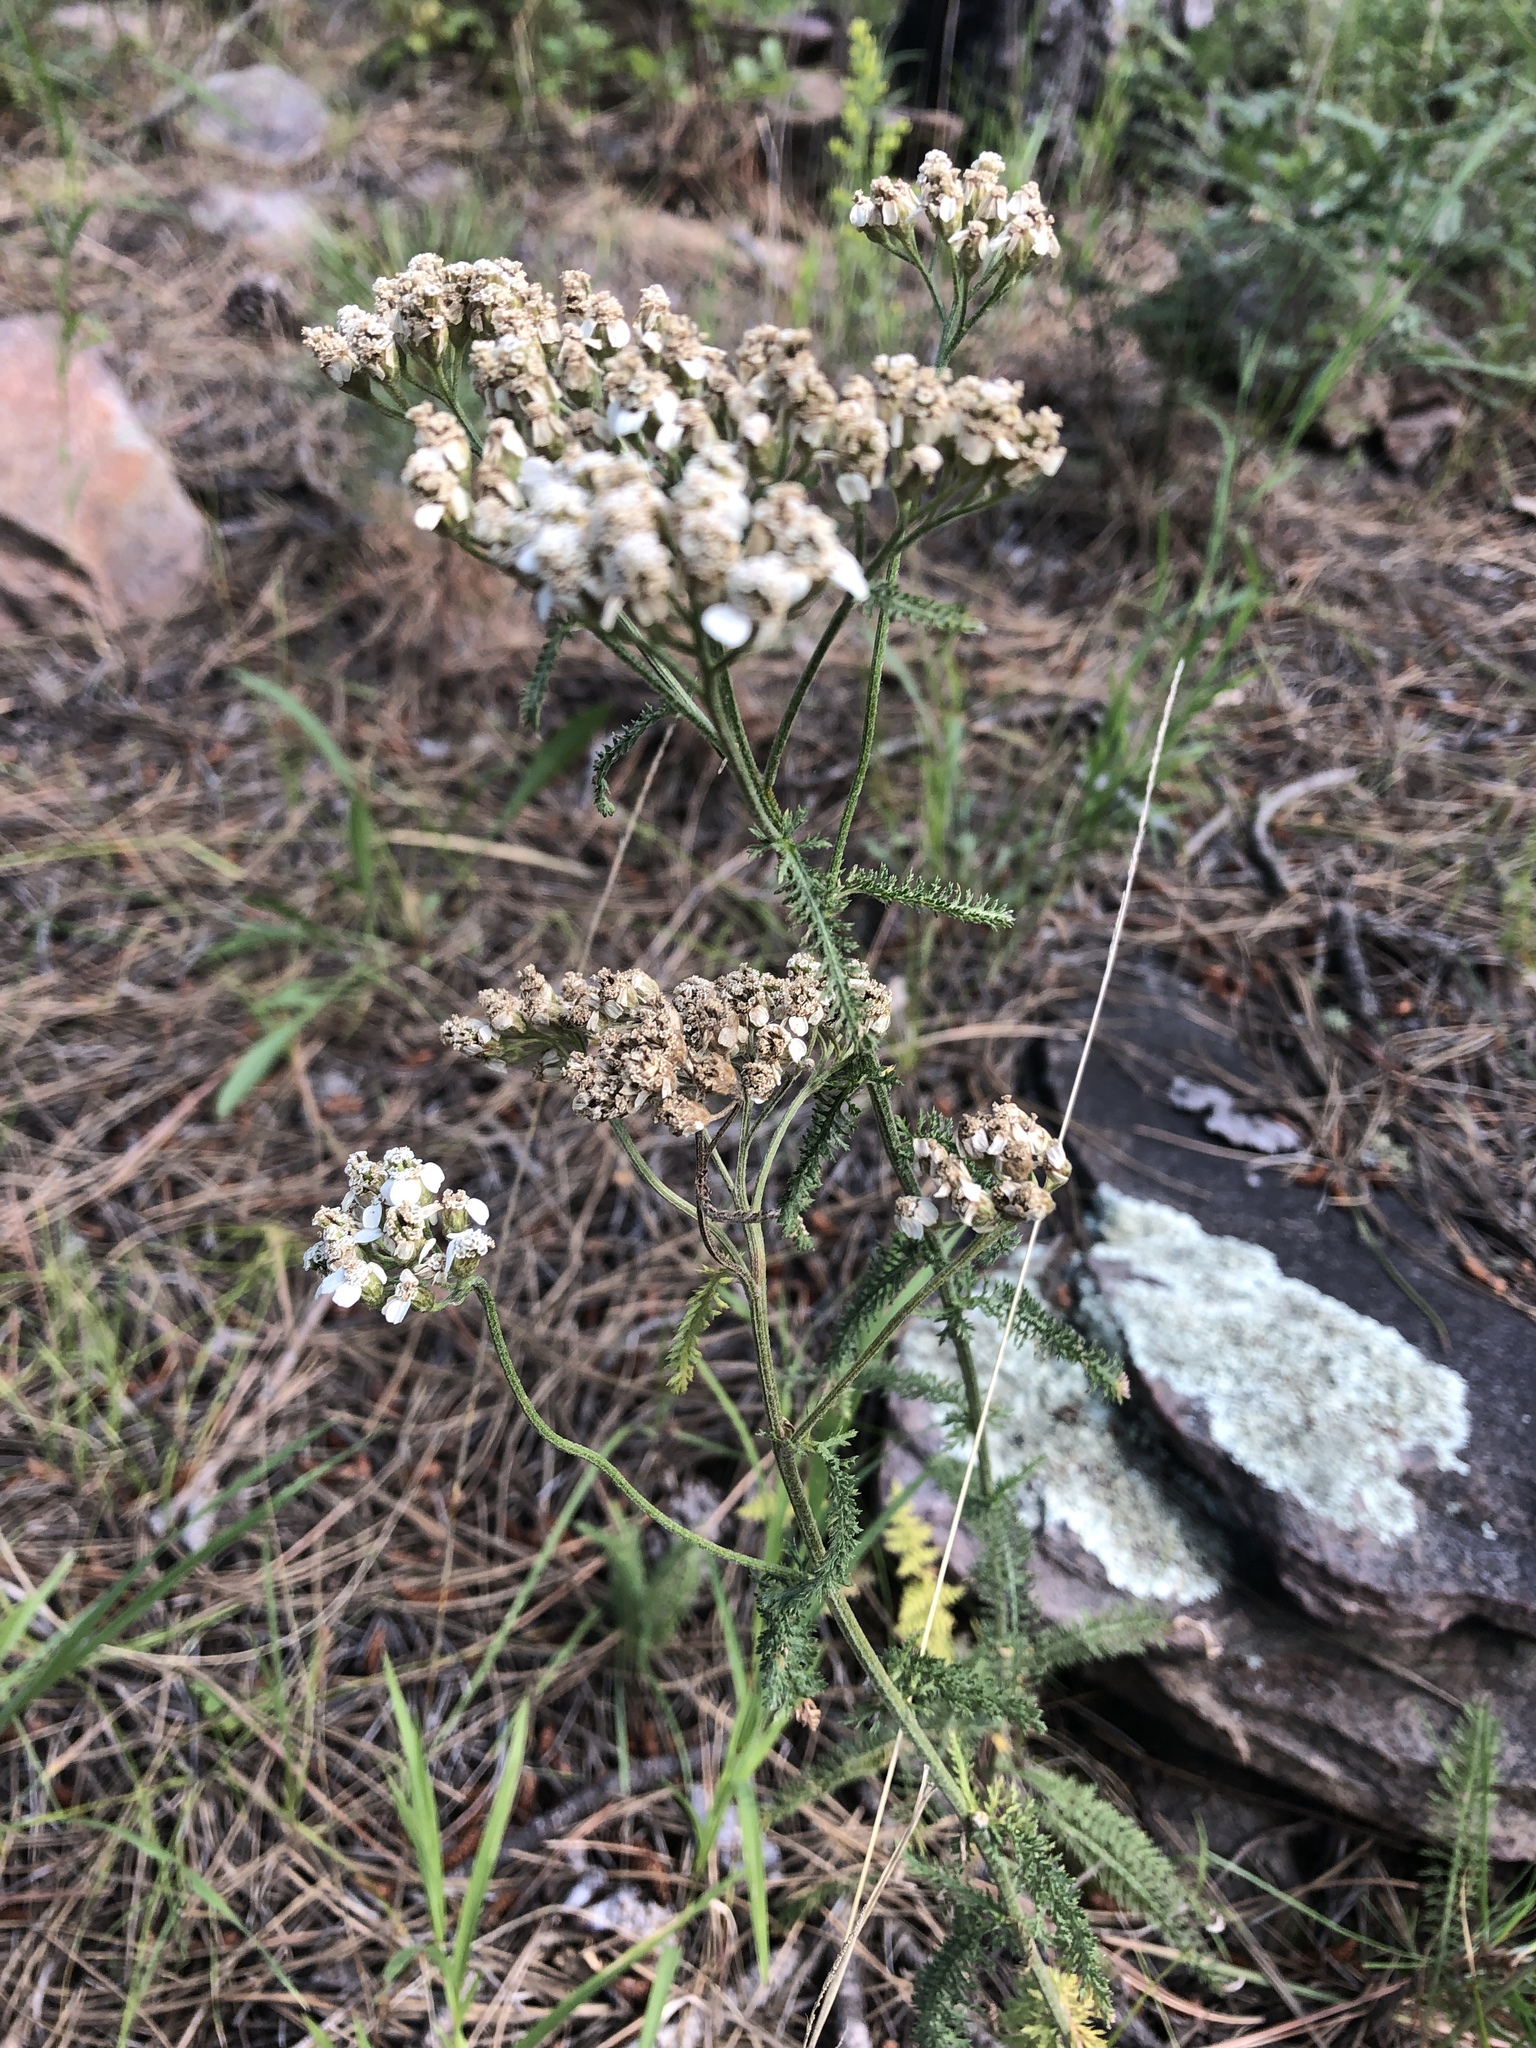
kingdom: Plantae
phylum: Tracheophyta
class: Magnoliopsida
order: Asterales
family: Asteraceae
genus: Achillea
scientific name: Achillea millefolium
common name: Yarrow
